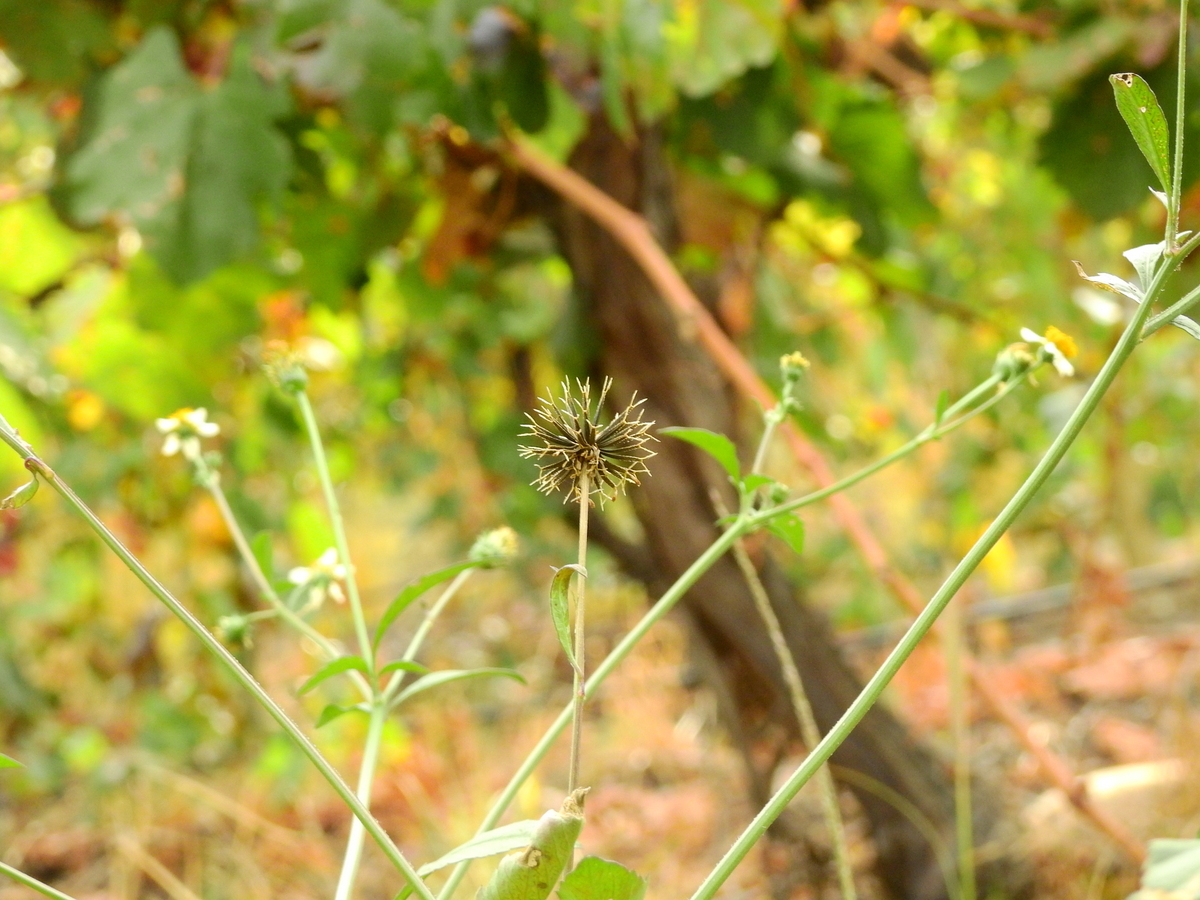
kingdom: Plantae
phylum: Tracheophyta
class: Magnoliopsida
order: Asterales
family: Asteraceae
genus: Bidens
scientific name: Bidens pilosa
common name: Black-jack
